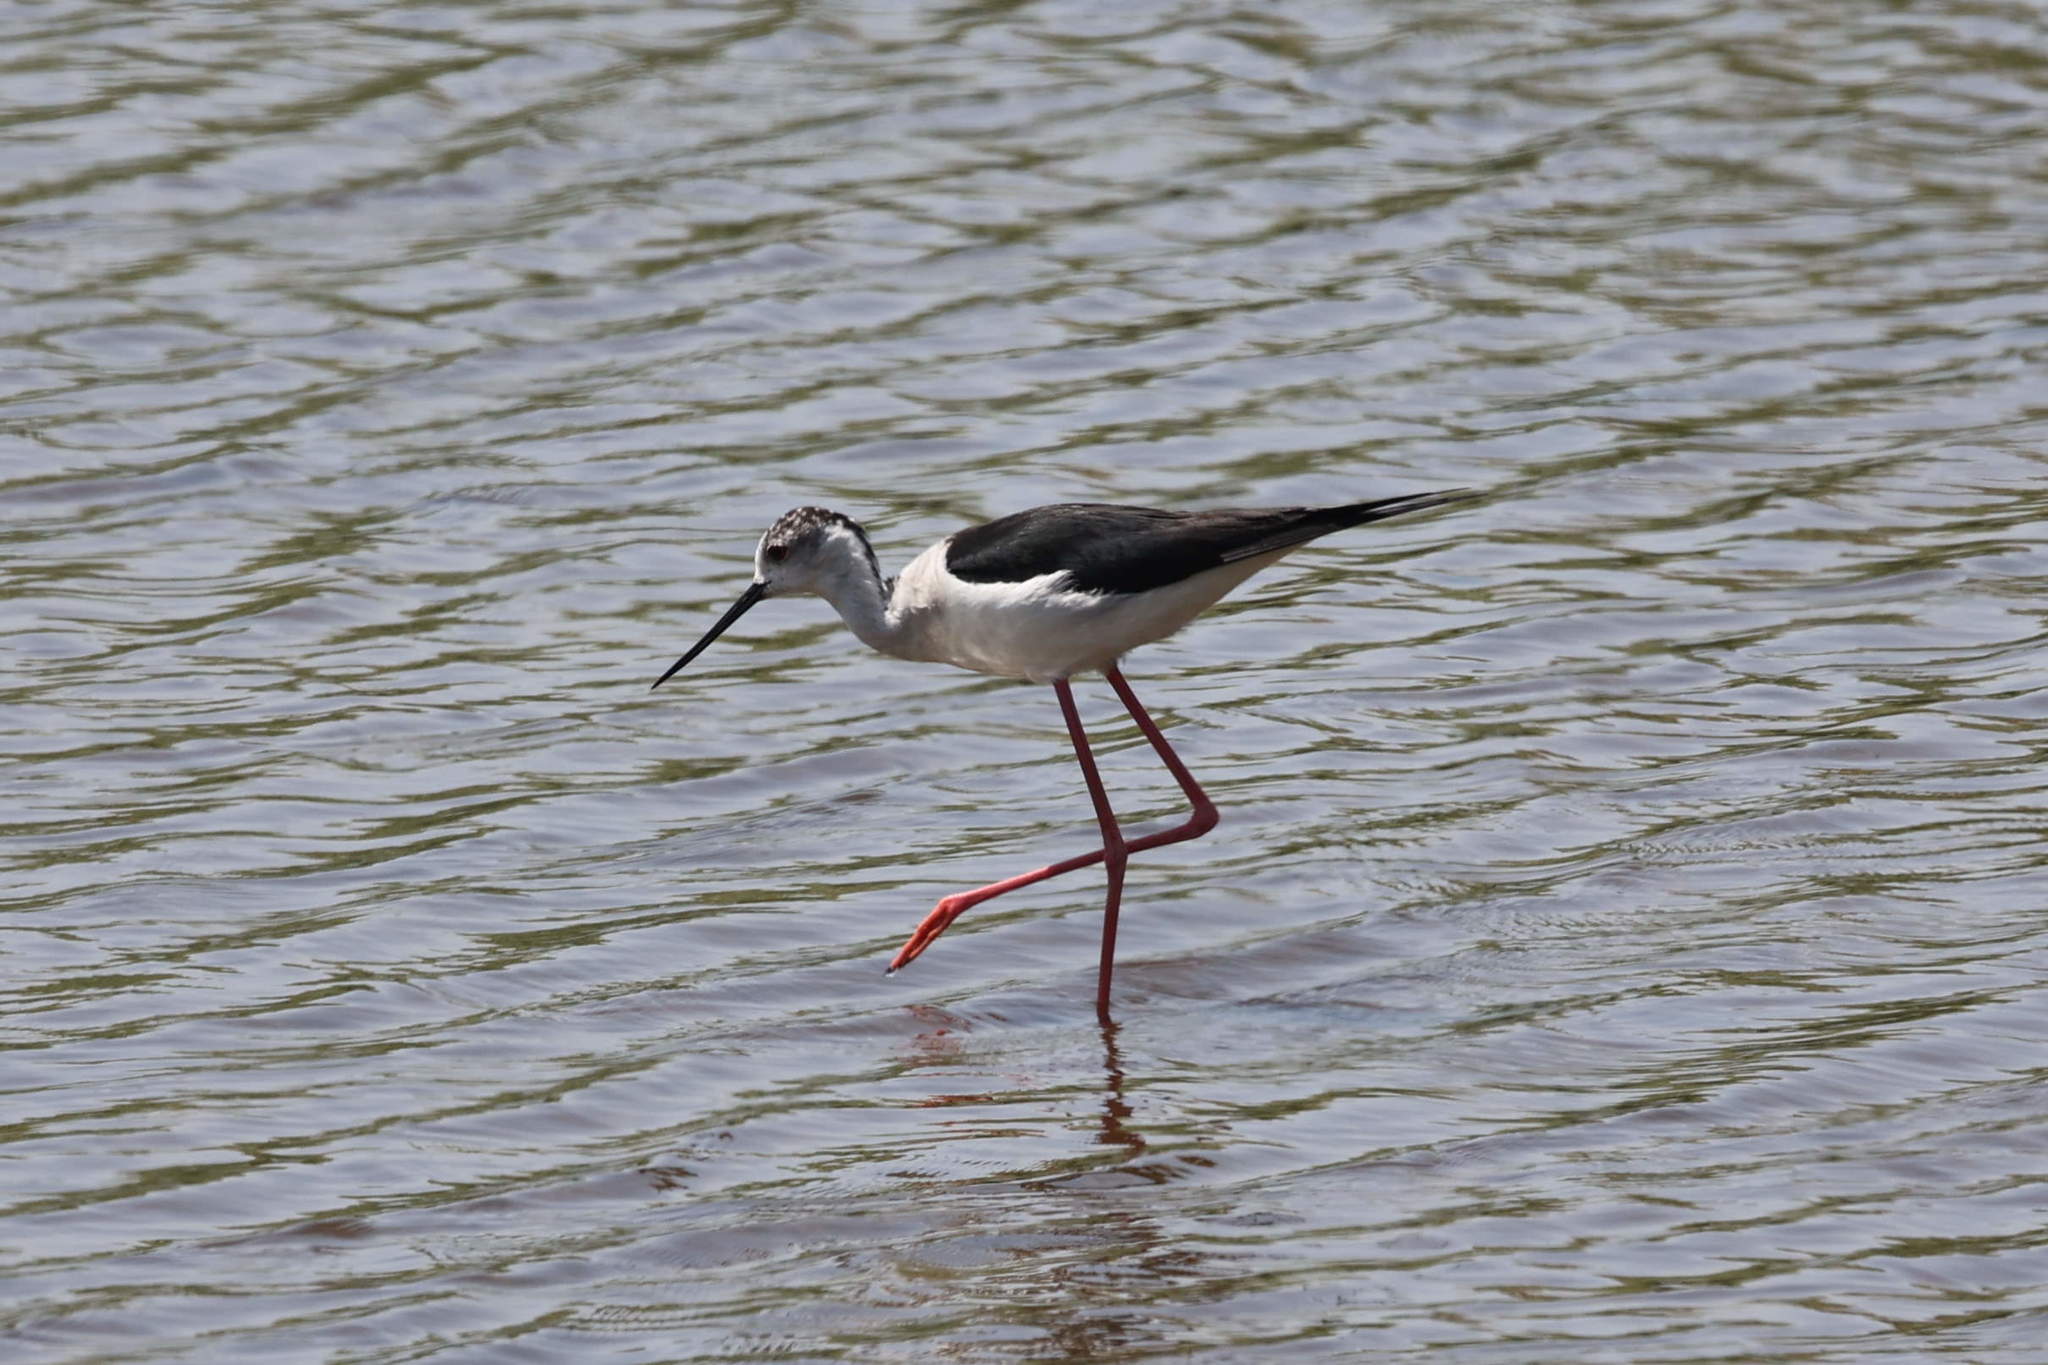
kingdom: Animalia
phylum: Chordata
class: Aves
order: Charadriiformes
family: Recurvirostridae
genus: Himantopus
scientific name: Himantopus himantopus
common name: Black-winged stilt
